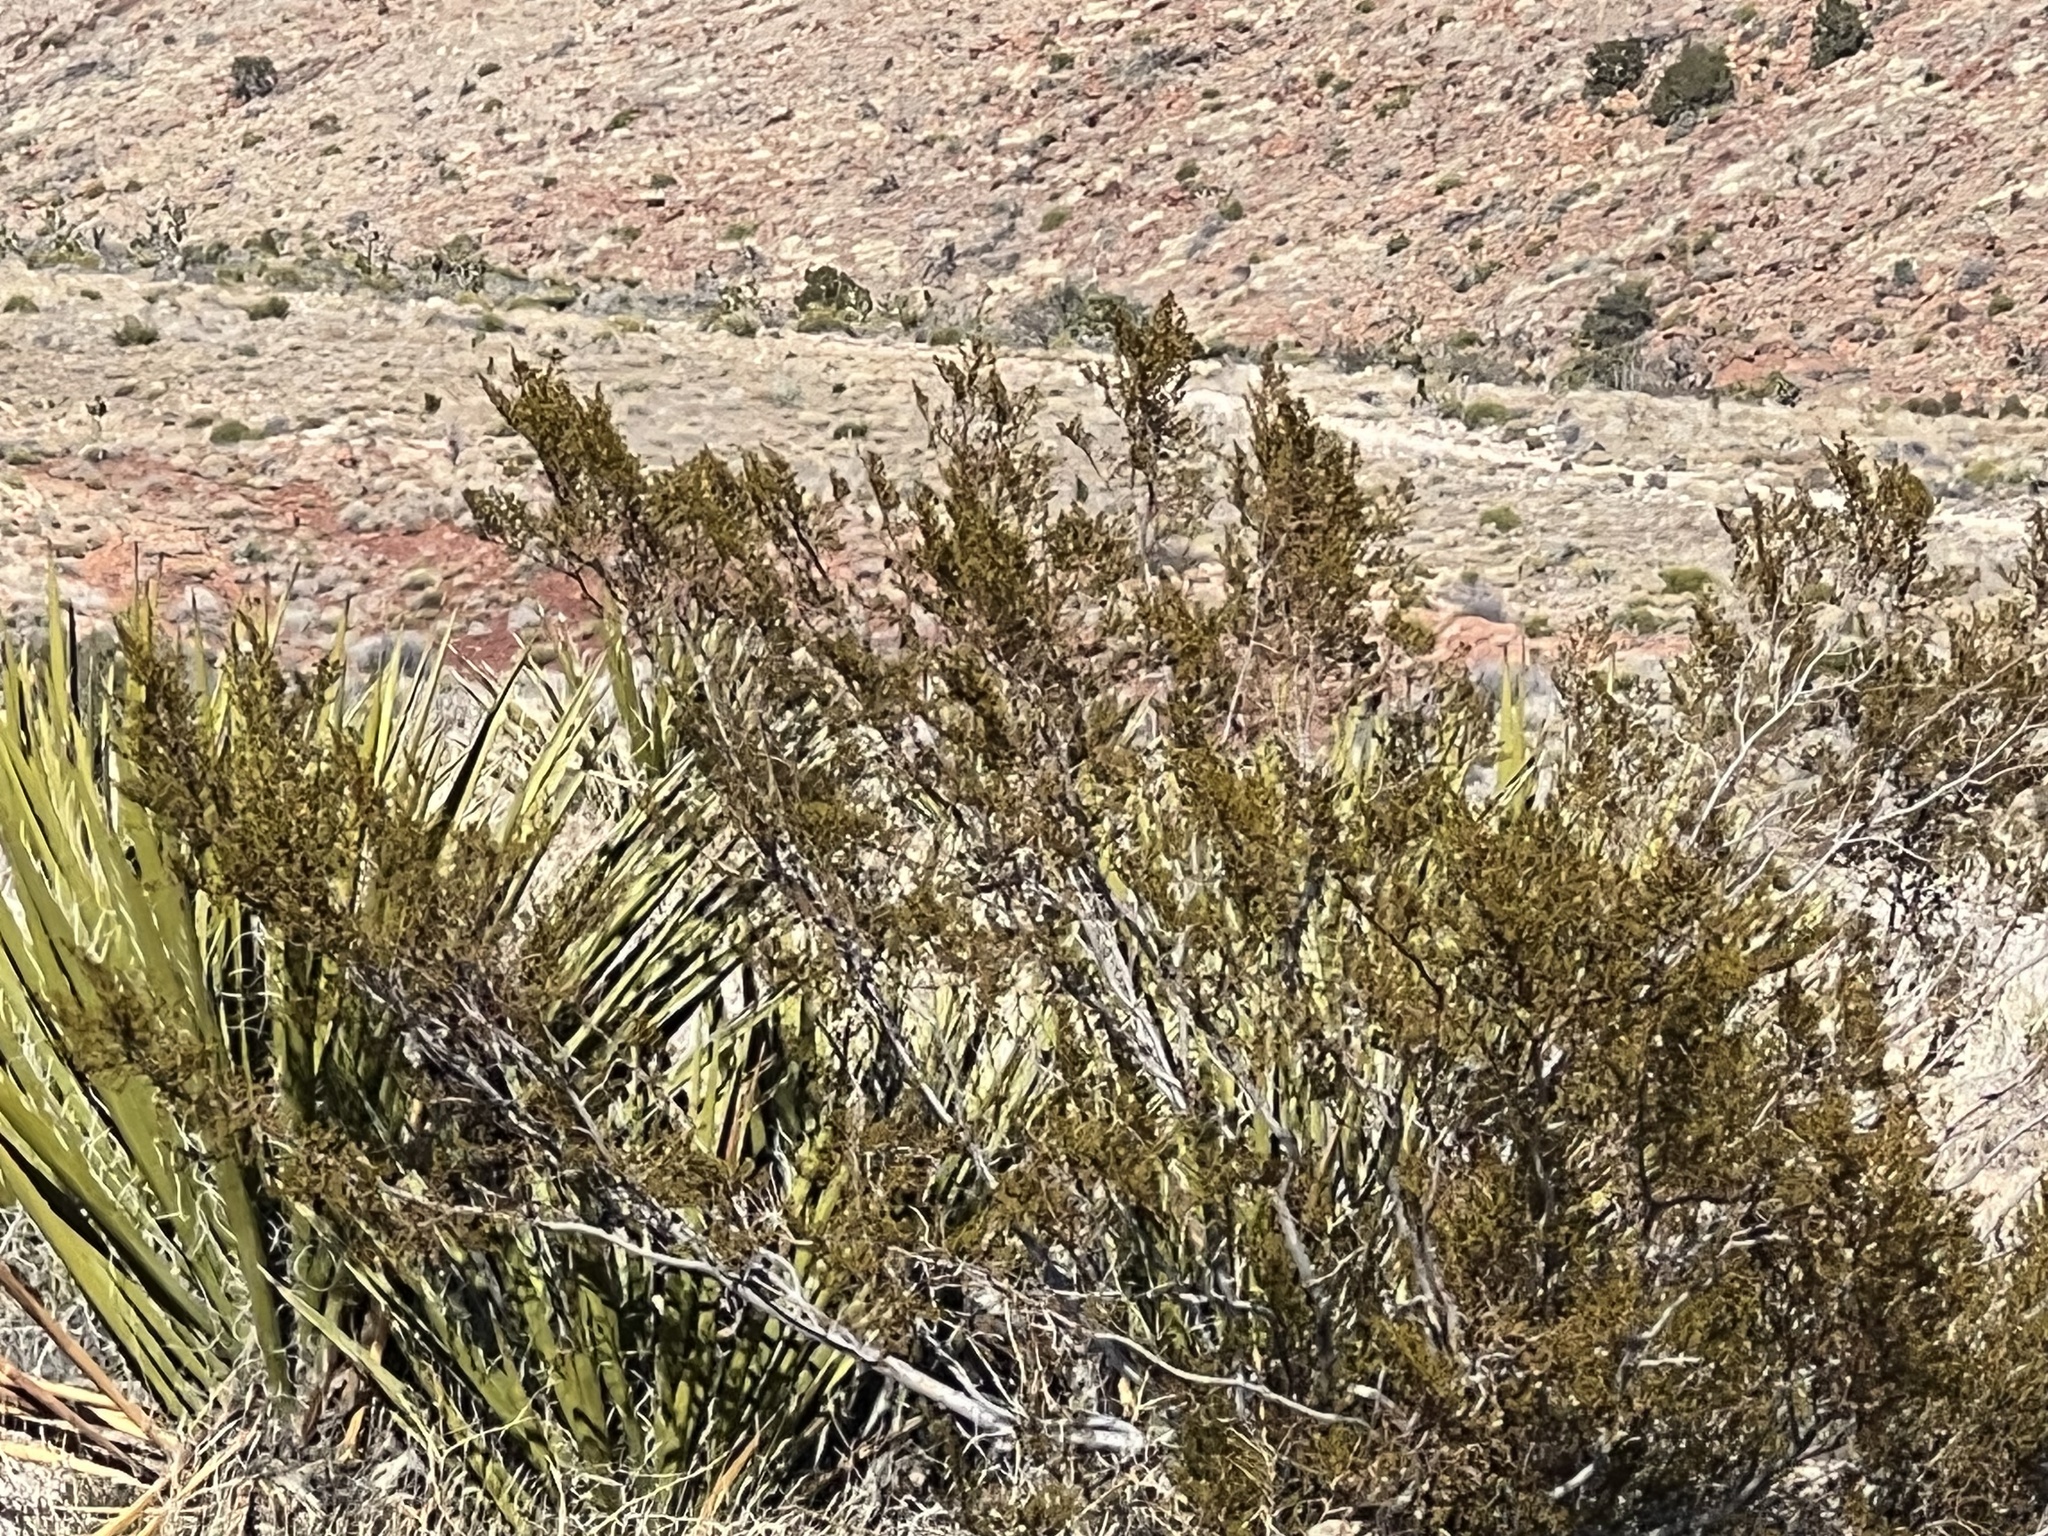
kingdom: Plantae
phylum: Tracheophyta
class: Magnoliopsida
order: Zygophyllales
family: Zygophyllaceae
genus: Larrea
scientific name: Larrea tridentata
